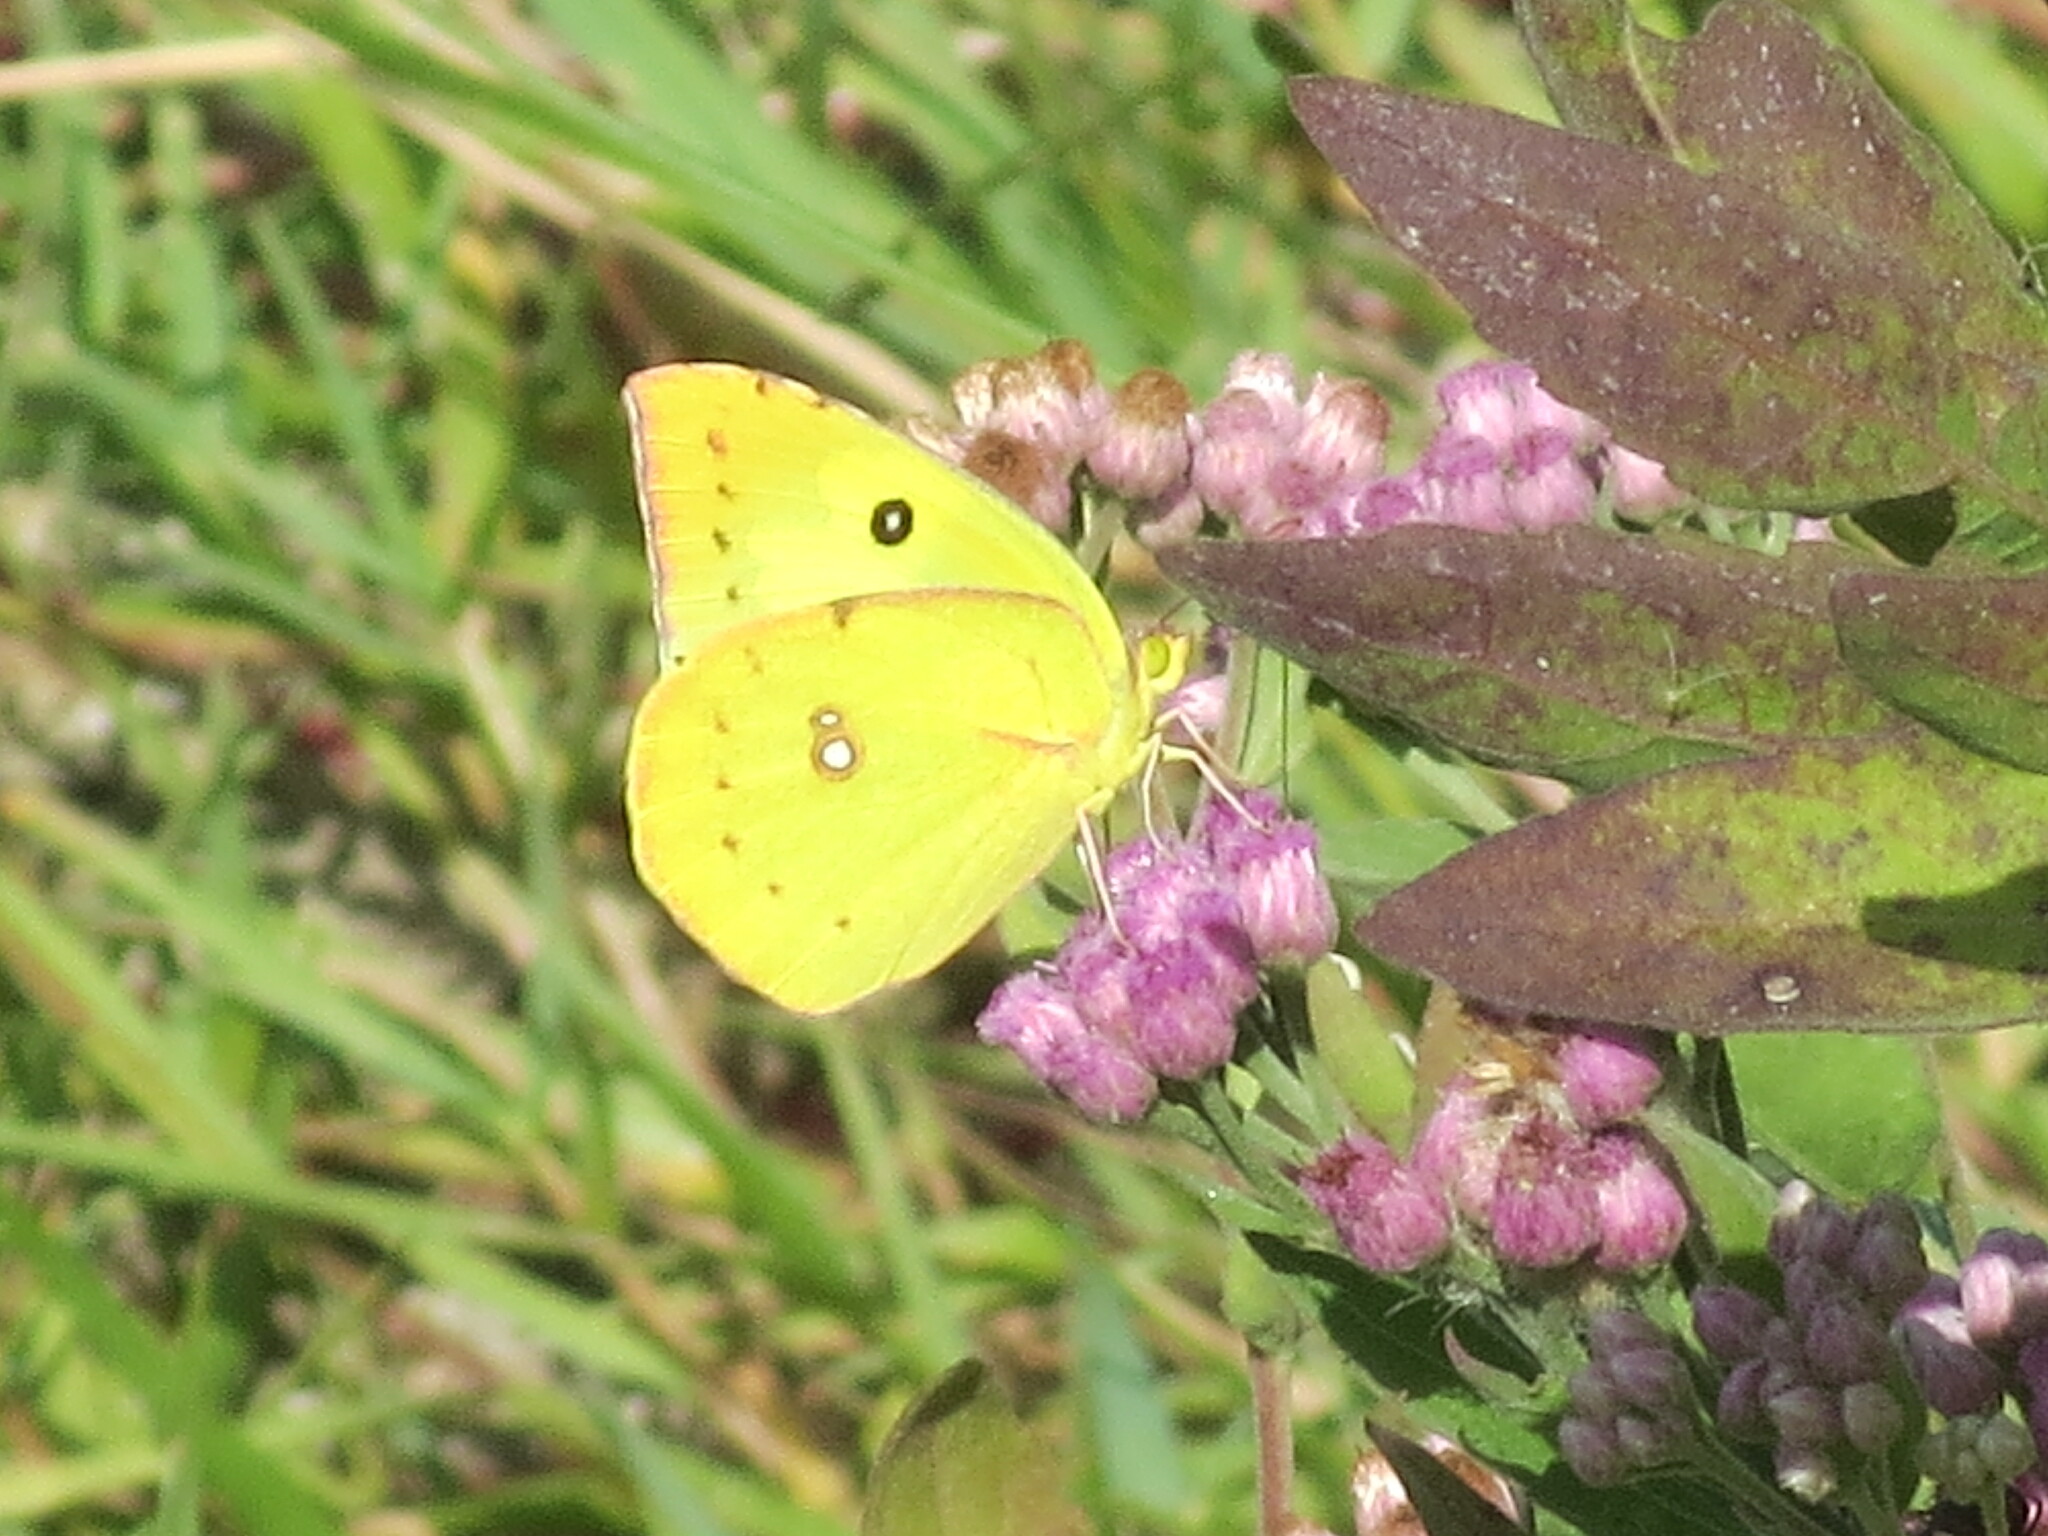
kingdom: Animalia
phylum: Arthropoda
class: Insecta
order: Lepidoptera
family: Pieridae
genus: Zerene
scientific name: Zerene cesonia
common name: Southern dogface
